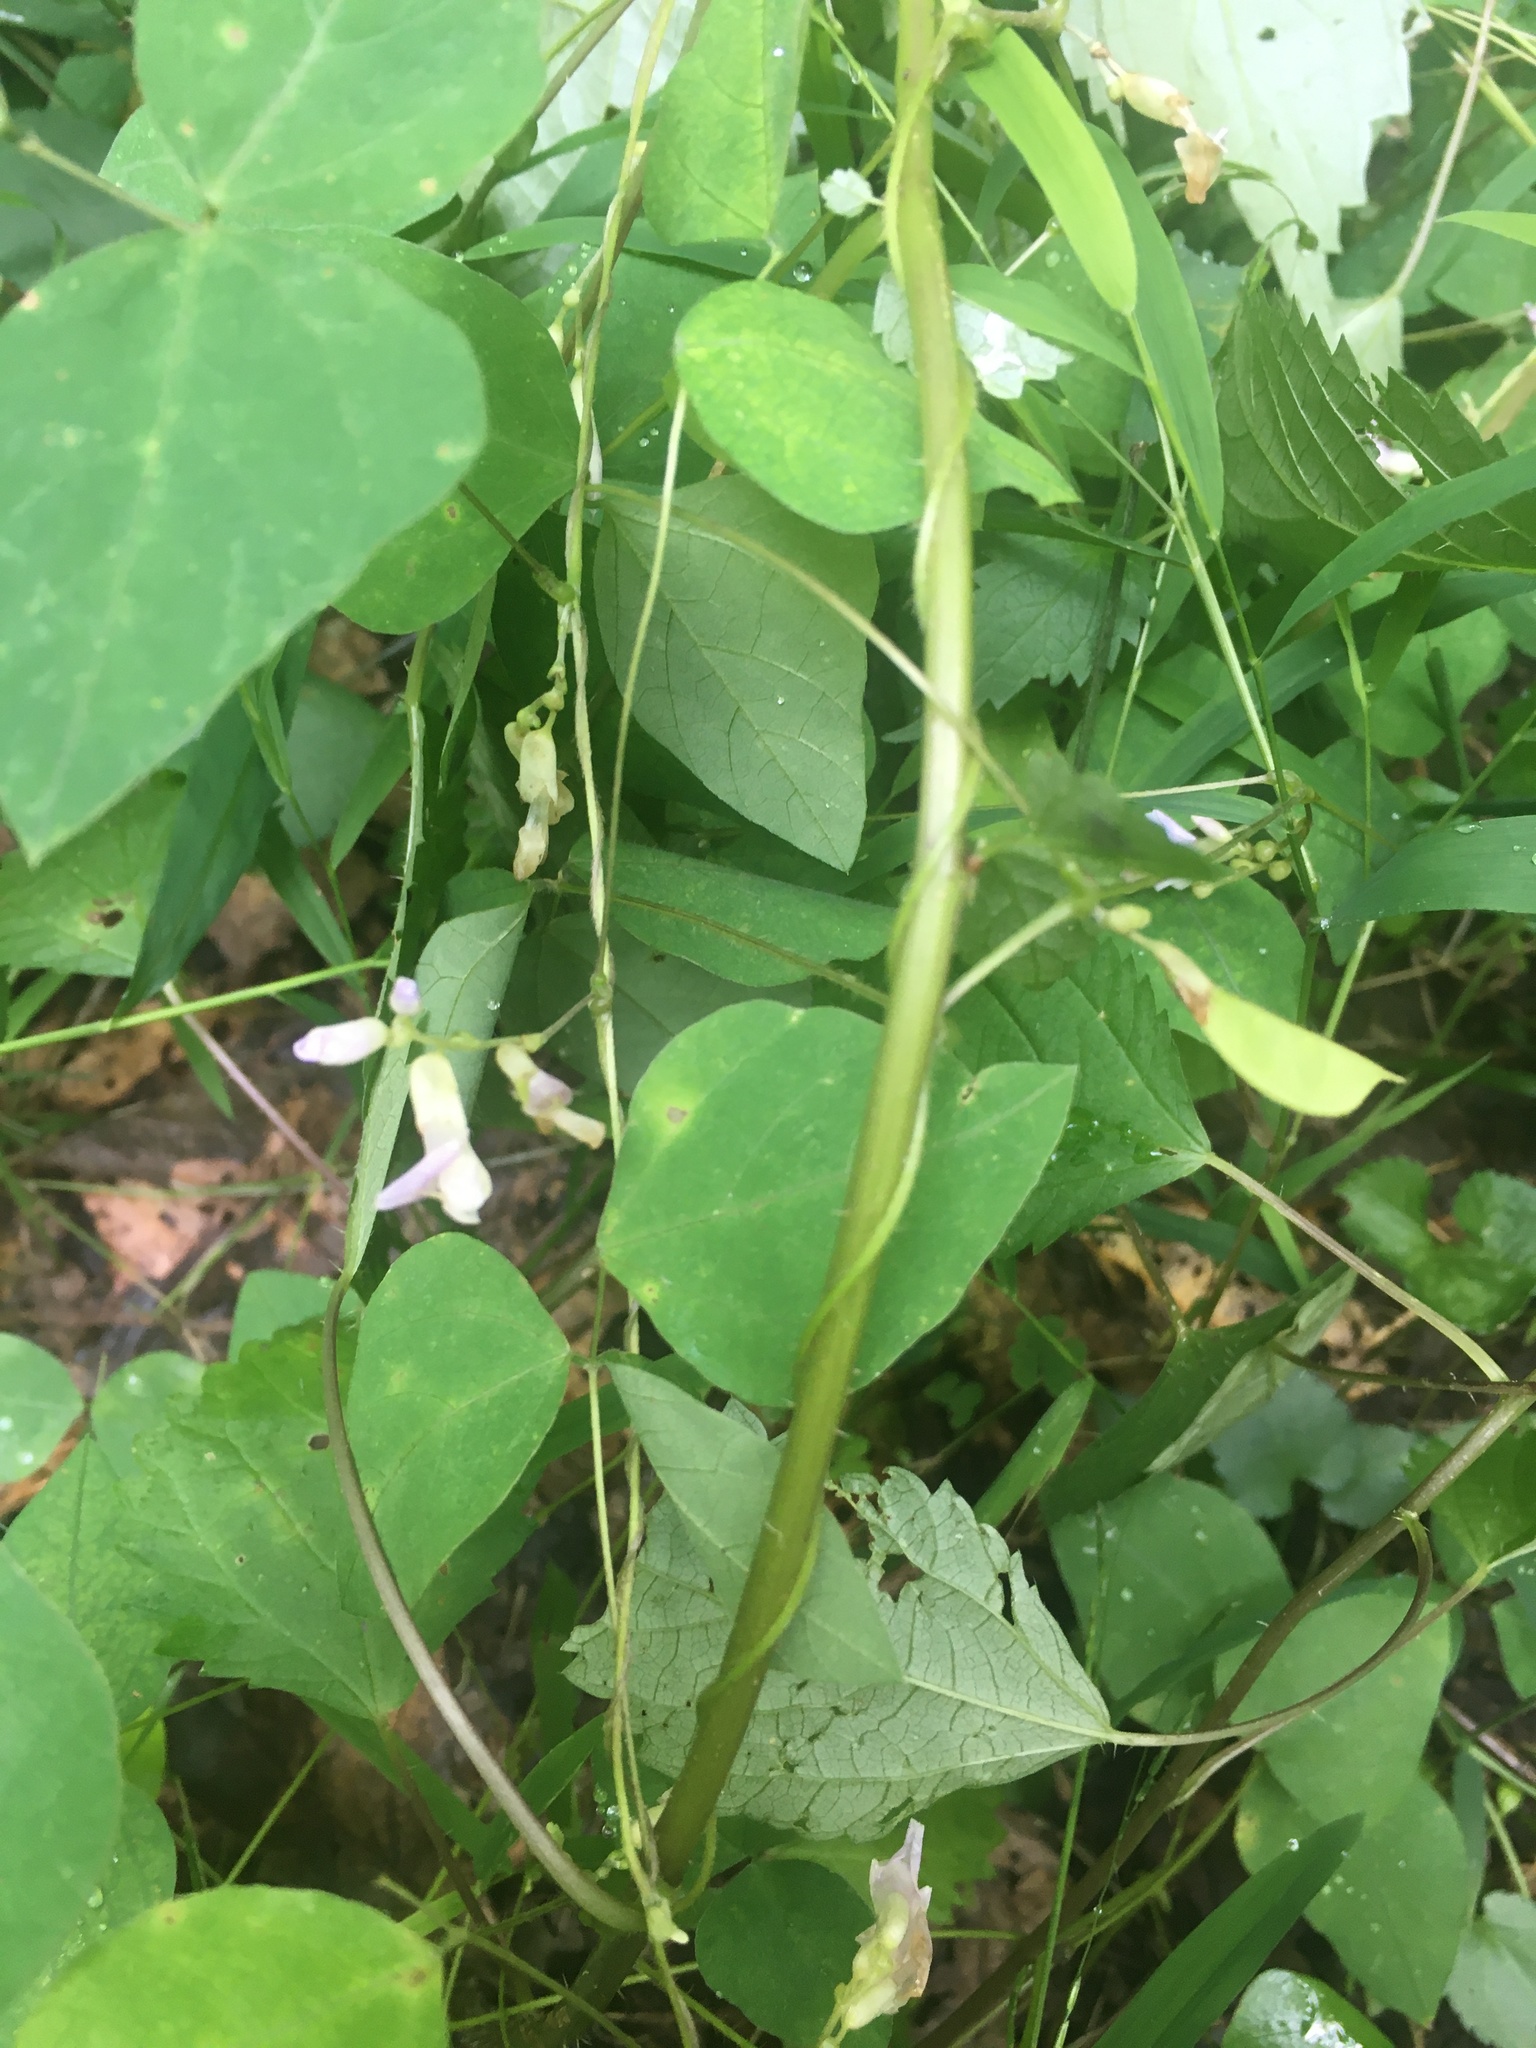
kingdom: Plantae
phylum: Tracheophyta
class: Magnoliopsida
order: Fabales
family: Fabaceae
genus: Amphicarpaea
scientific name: Amphicarpaea bracteata
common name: American hog peanut
